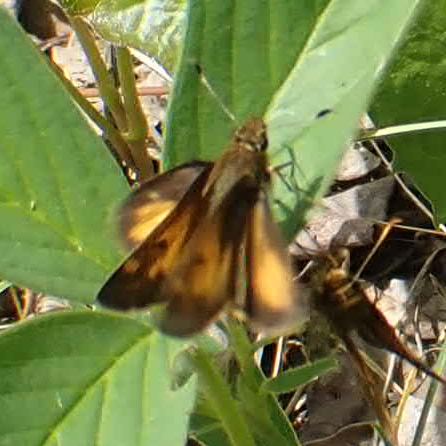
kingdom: Animalia
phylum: Arthropoda
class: Insecta
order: Lepidoptera
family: Hesperiidae
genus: Lon
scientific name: Lon hobomok
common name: Hobomok skipper
